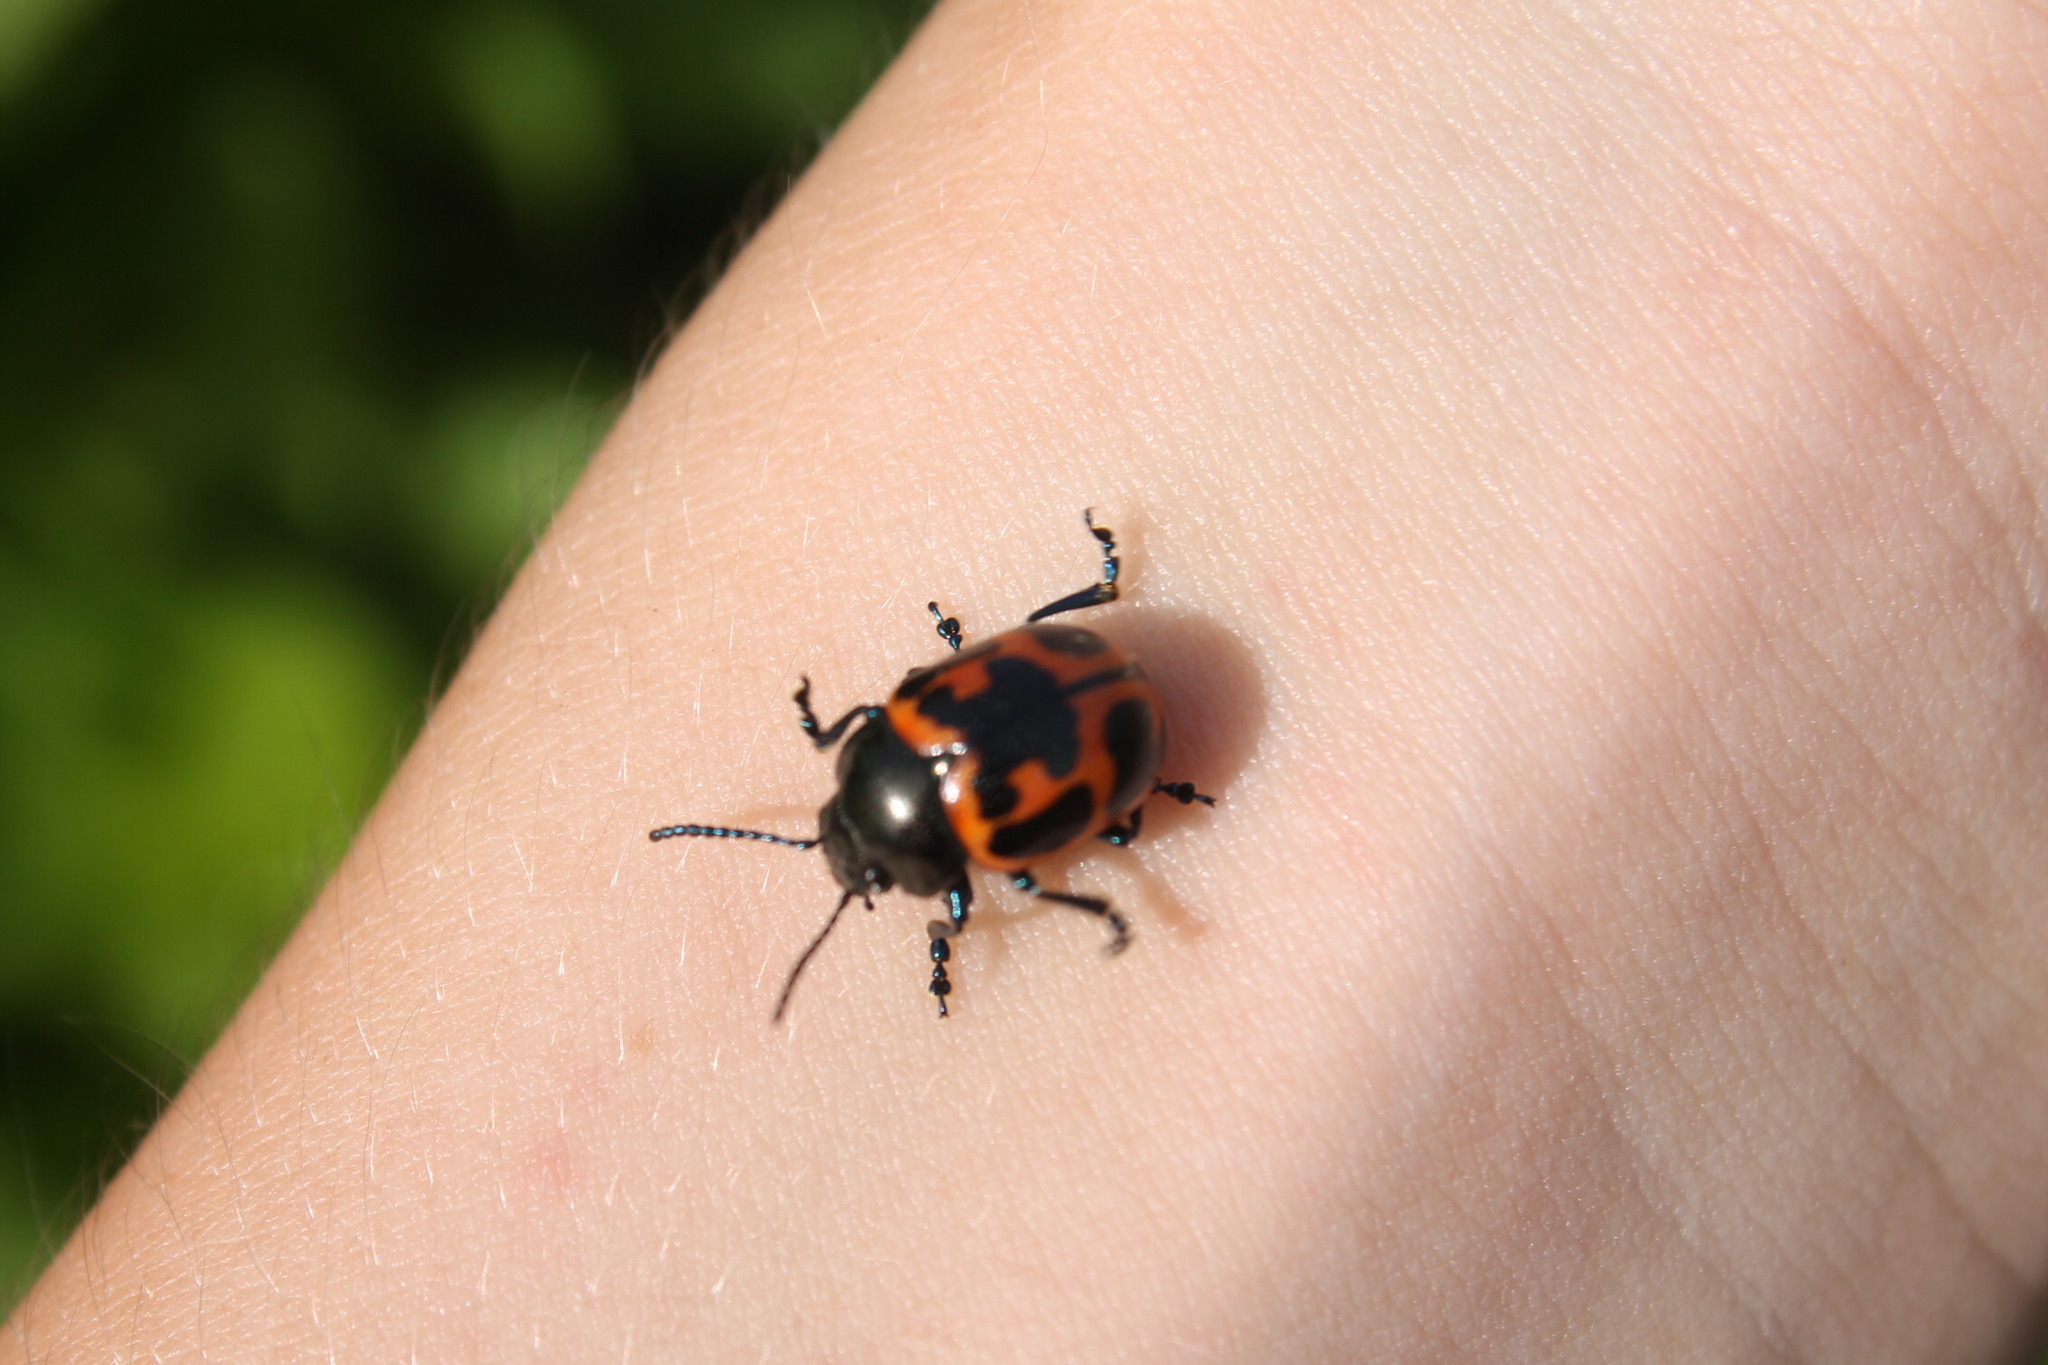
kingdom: Animalia
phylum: Arthropoda
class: Insecta
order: Coleoptera
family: Chrysomelidae
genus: Labidomera
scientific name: Labidomera clivicollis
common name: Swamp milkweed leaf beetle
